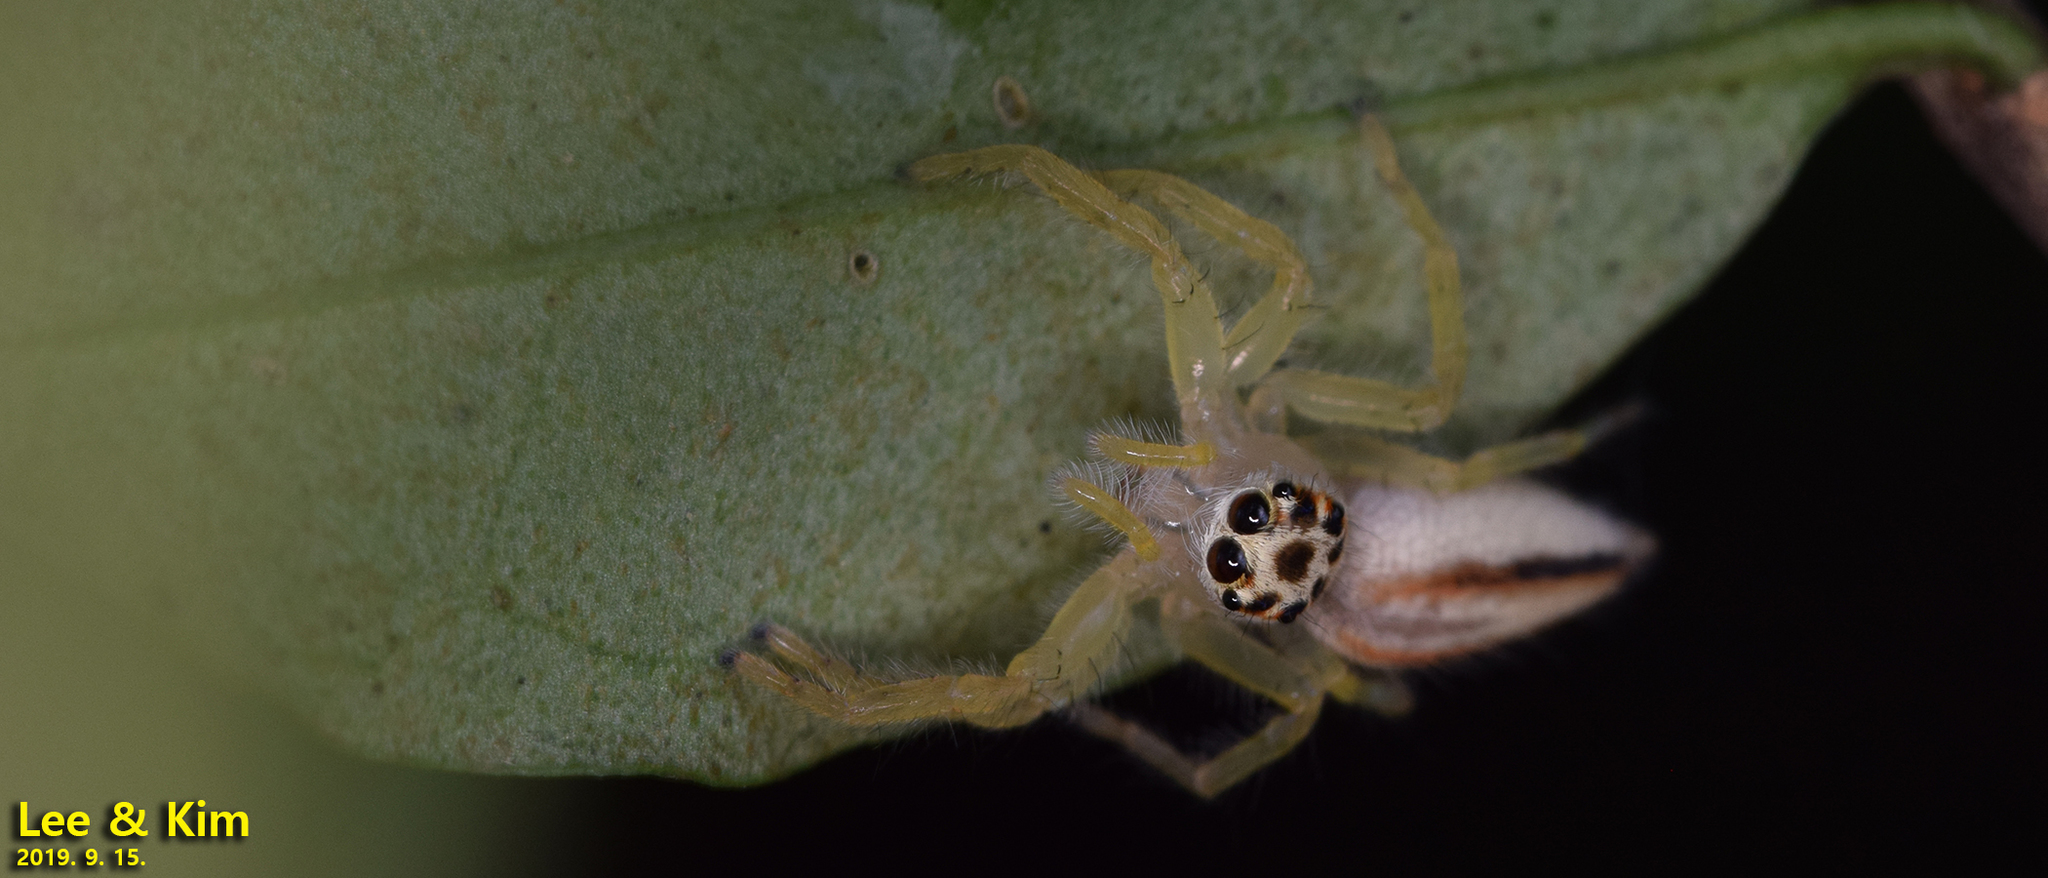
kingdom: Animalia
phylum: Arthropoda
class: Arachnida
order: Araneae
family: Salticidae
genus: Telamonia
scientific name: Telamonia vlijmi
